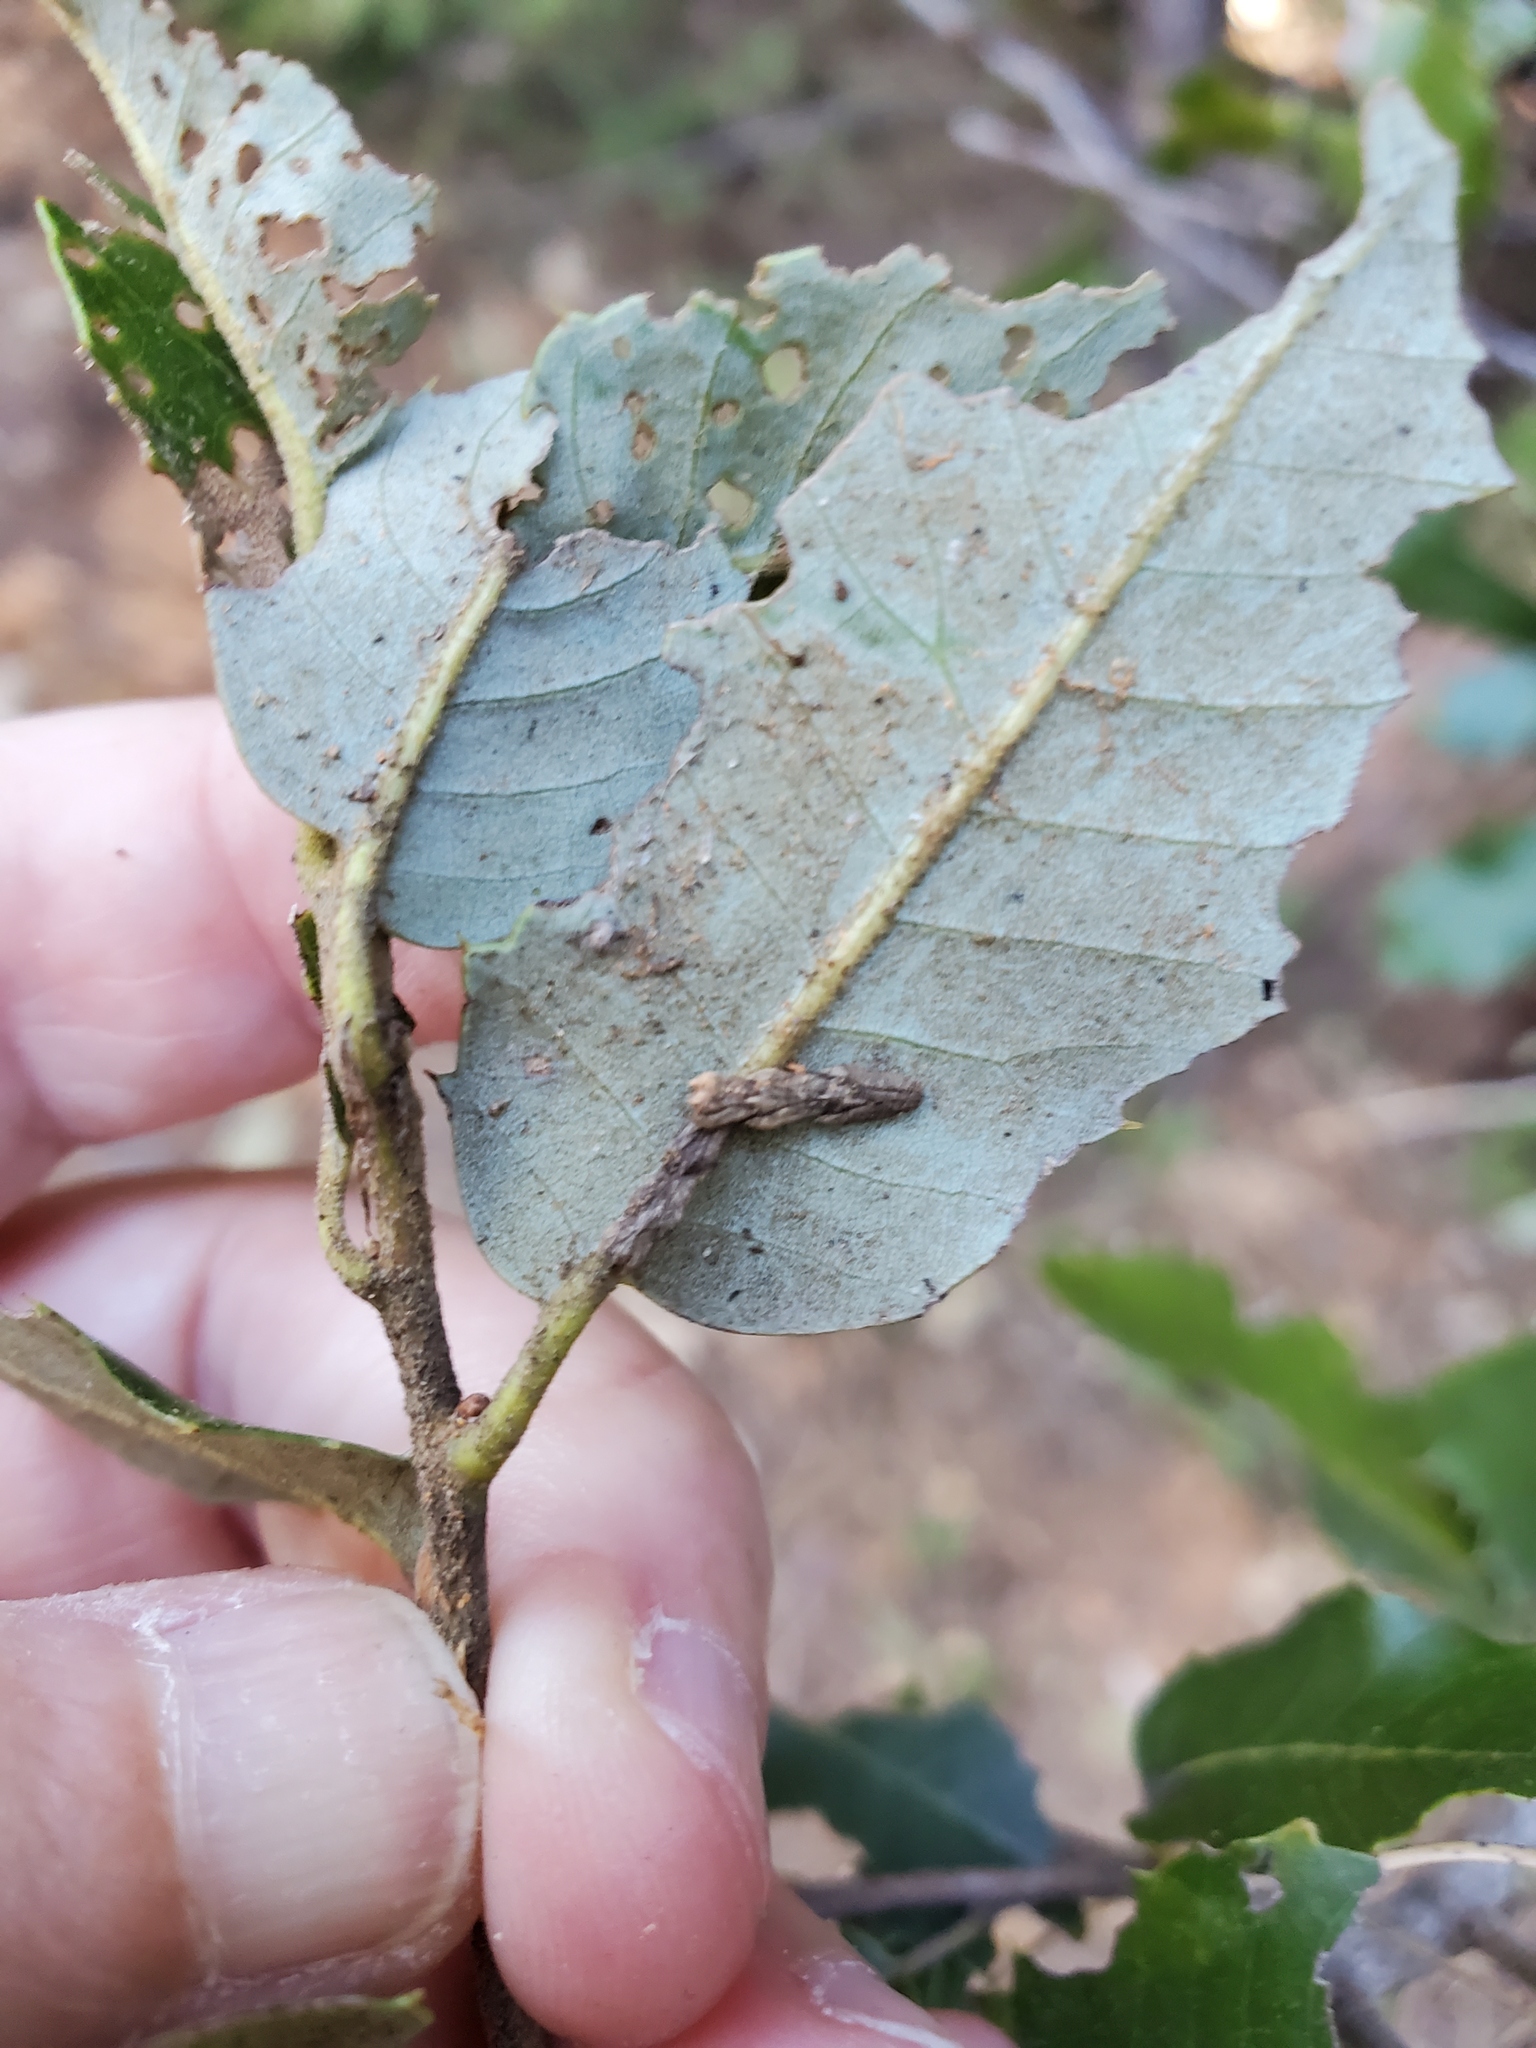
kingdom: Plantae
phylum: Tracheophyta
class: Magnoliopsida
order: Fagales
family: Fagaceae
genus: Quercus
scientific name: Quercus chrysolepis
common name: Canyon live oak
